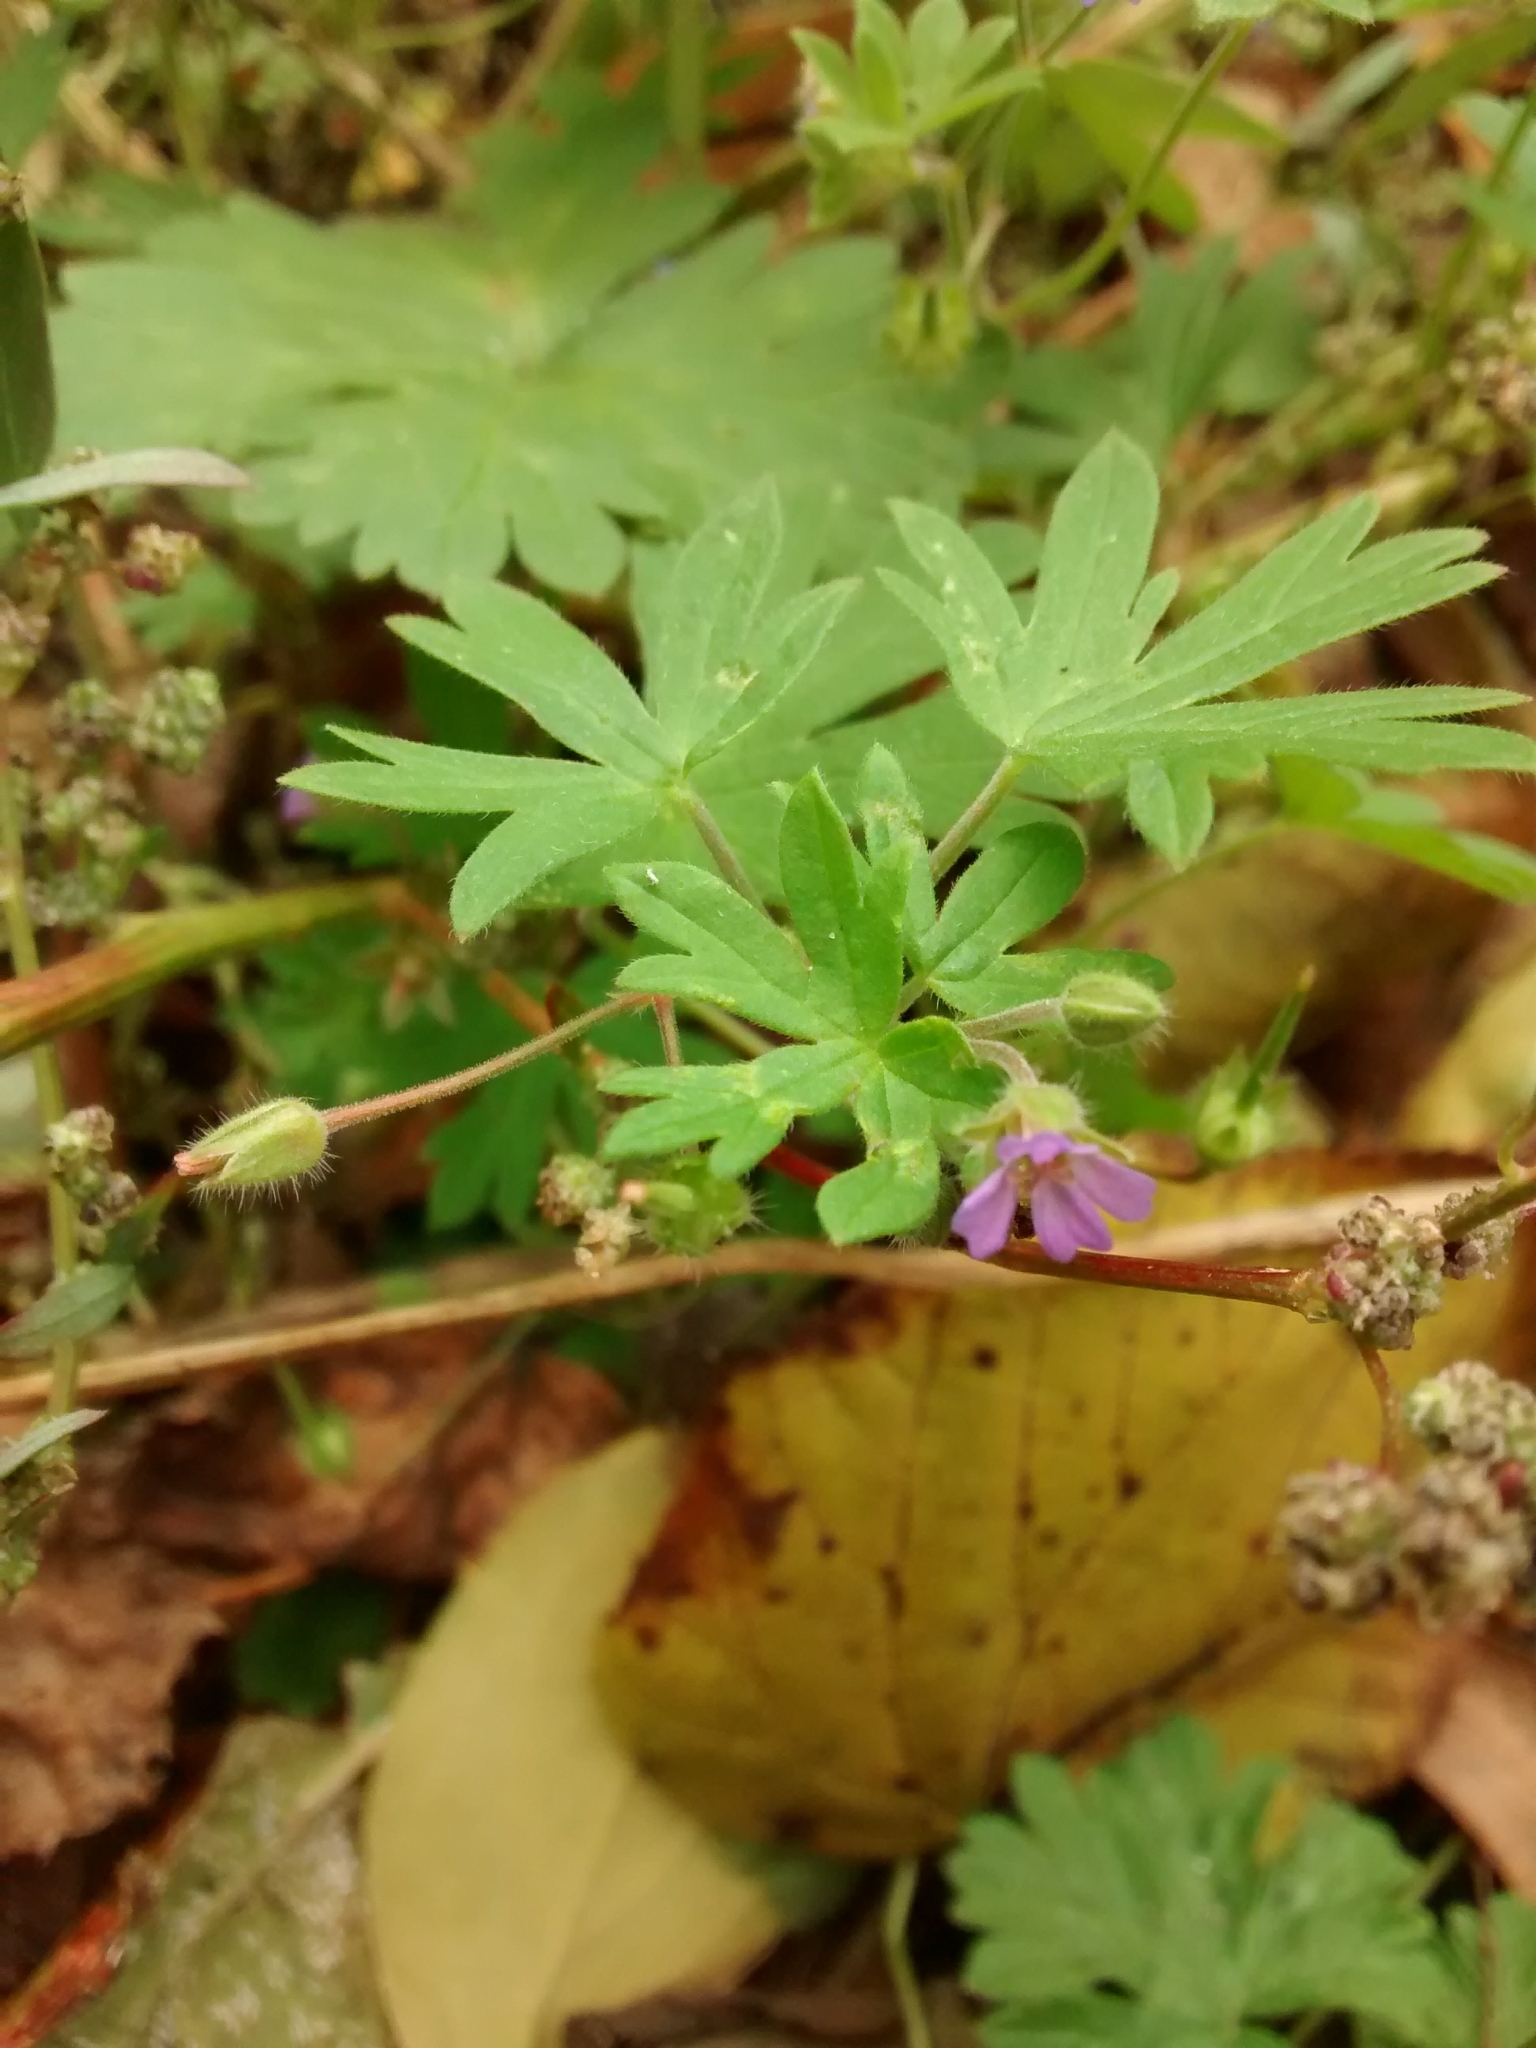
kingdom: Plantae
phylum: Tracheophyta
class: Magnoliopsida
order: Geraniales
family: Geraniaceae
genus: Geranium
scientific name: Geranium pusillum
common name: Small geranium
